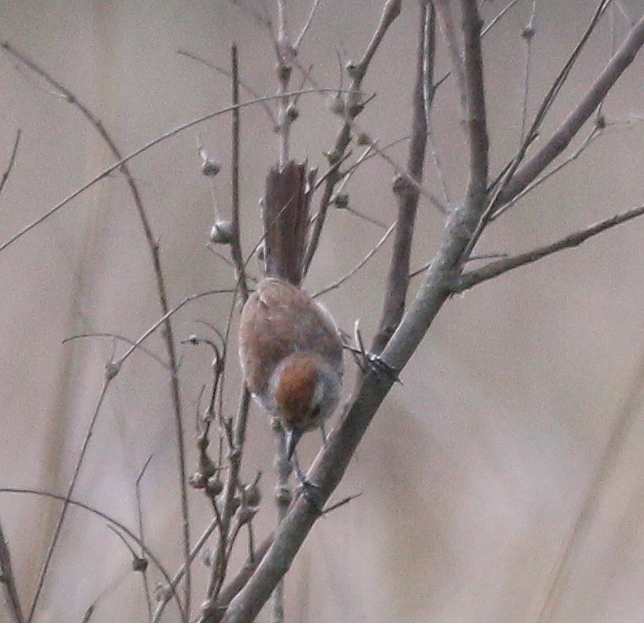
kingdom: Animalia
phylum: Chordata
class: Aves
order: Passeriformes
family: Thamnophilidae
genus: Thamnophilus
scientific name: Thamnophilus ruficapillus
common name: Rufous-capped antshrike
